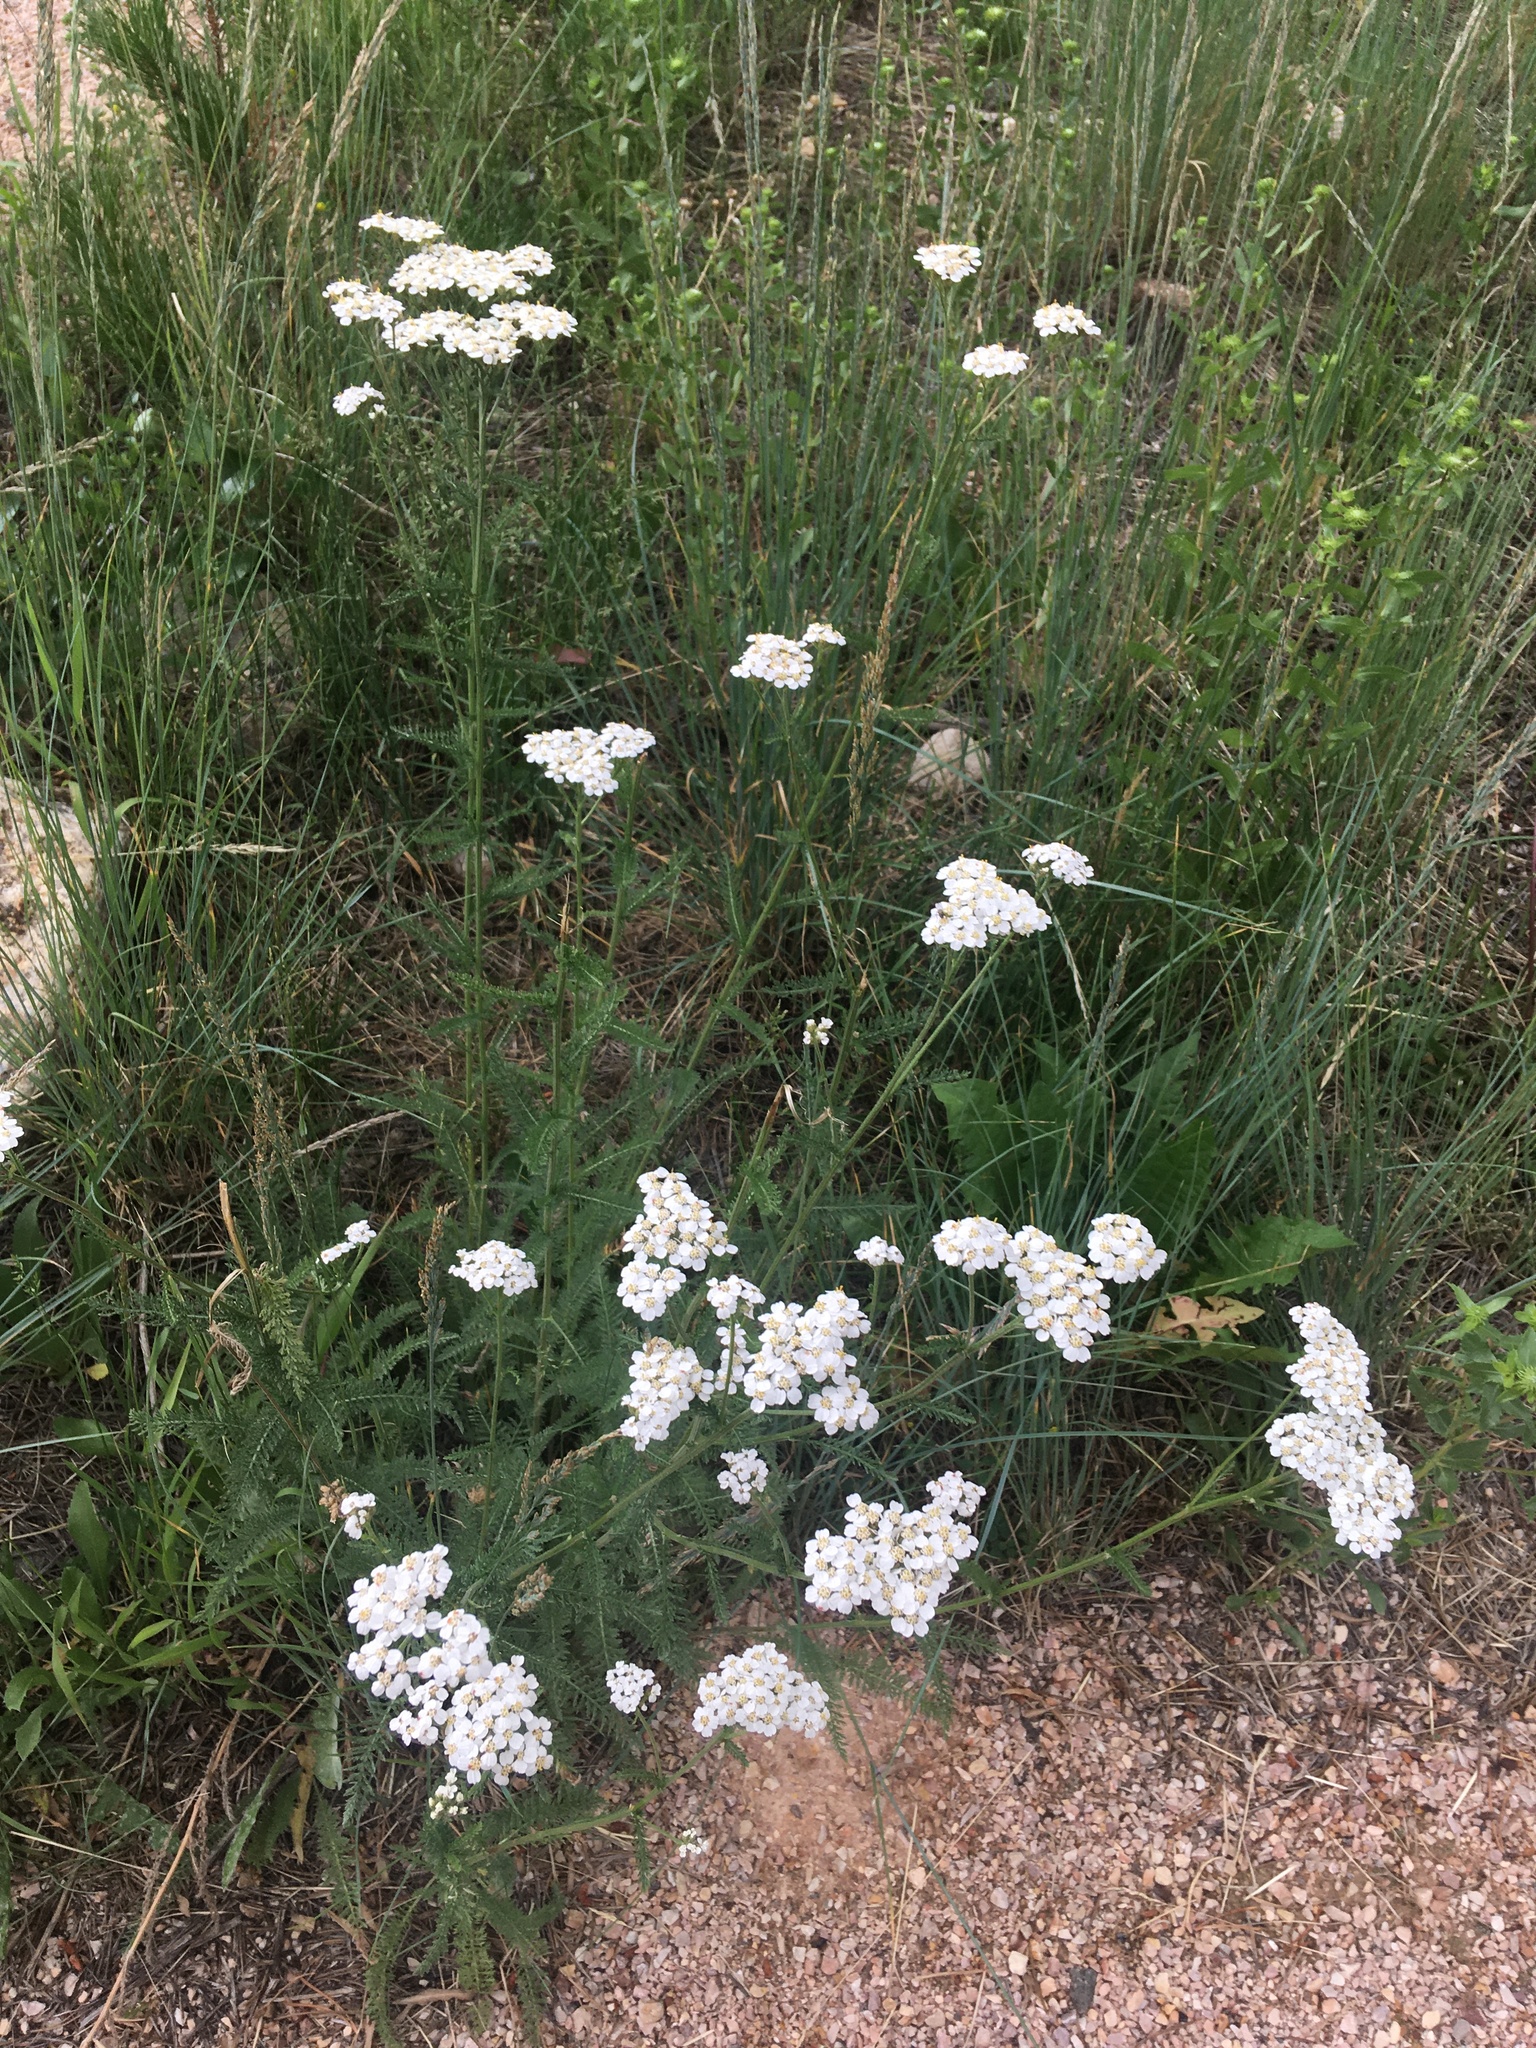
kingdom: Plantae
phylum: Tracheophyta
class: Magnoliopsida
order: Asterales
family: Asteraceae
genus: Achillea
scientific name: Achillea millefolium
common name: Yarrow
